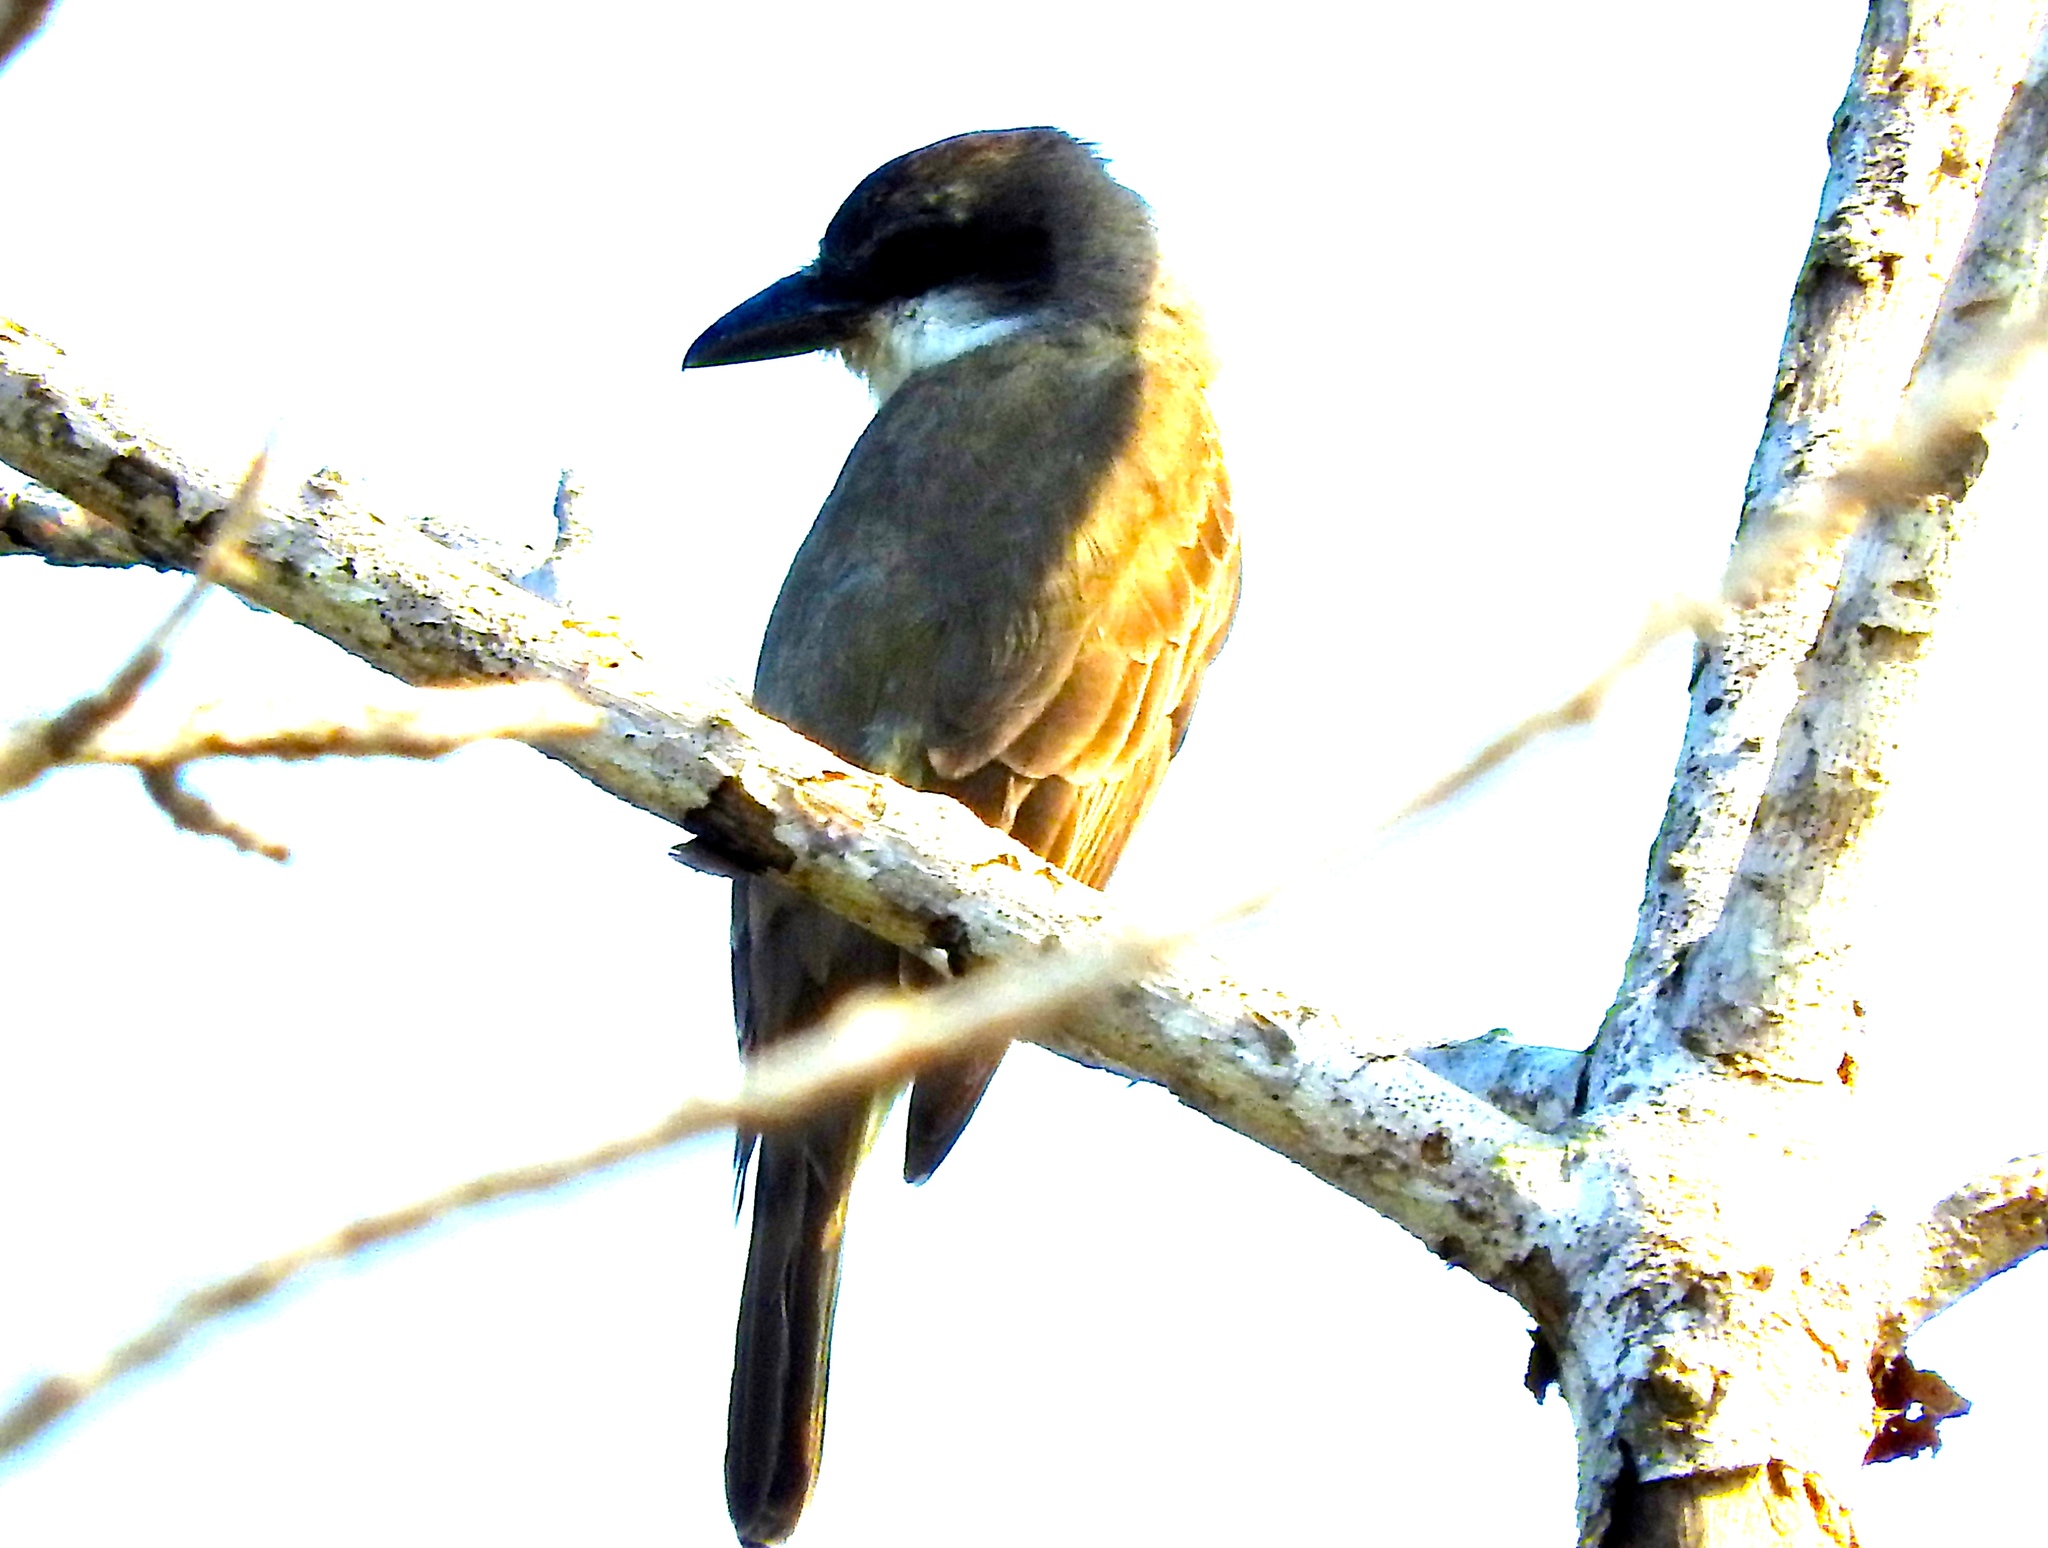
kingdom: Animalia
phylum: Chordata
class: Aves
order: Passeriformes
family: Tyrannidae
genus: Tyrannus
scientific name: Tyrannus crassirostris
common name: Thick-billed kingbird
